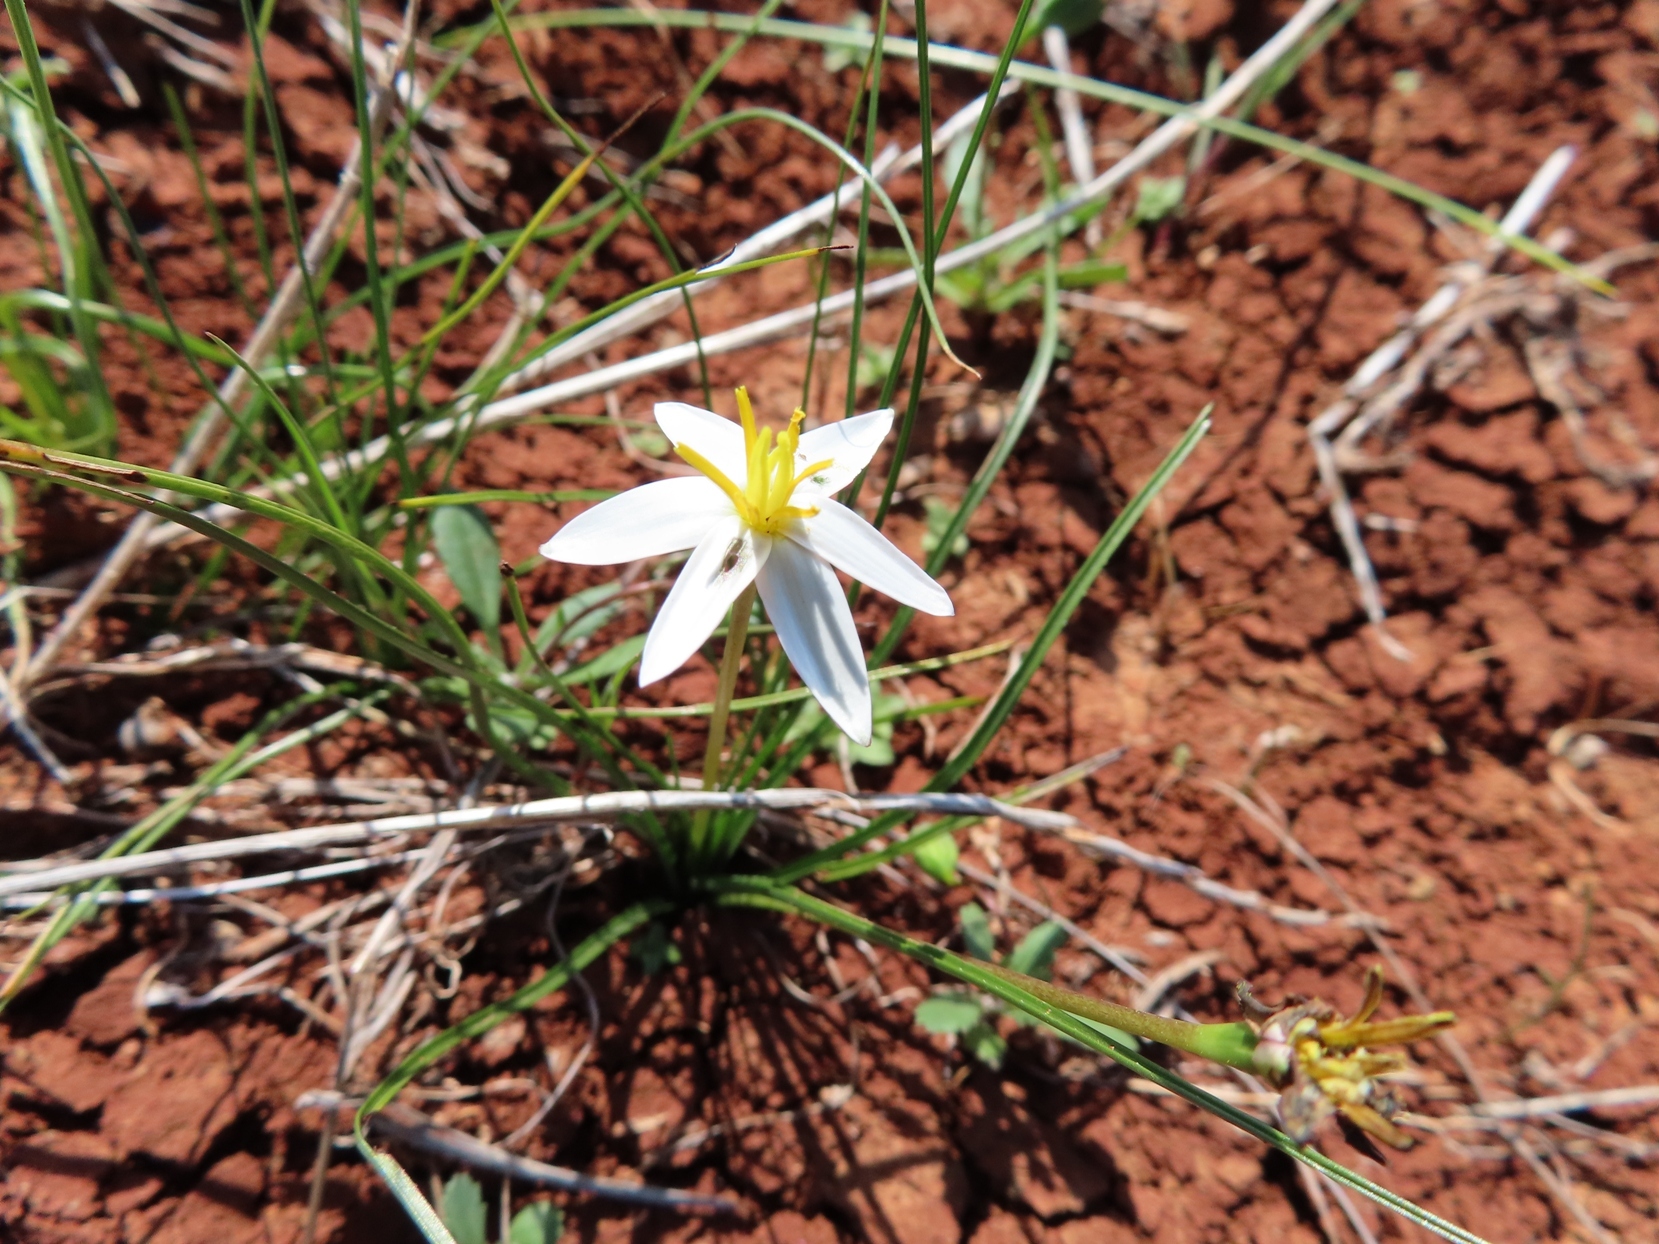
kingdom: Plantae
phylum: Tracheophyta
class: Liliopsida
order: Asparagales
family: Hypoxidaceae
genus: Pauridia
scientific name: Pauridia serrata
